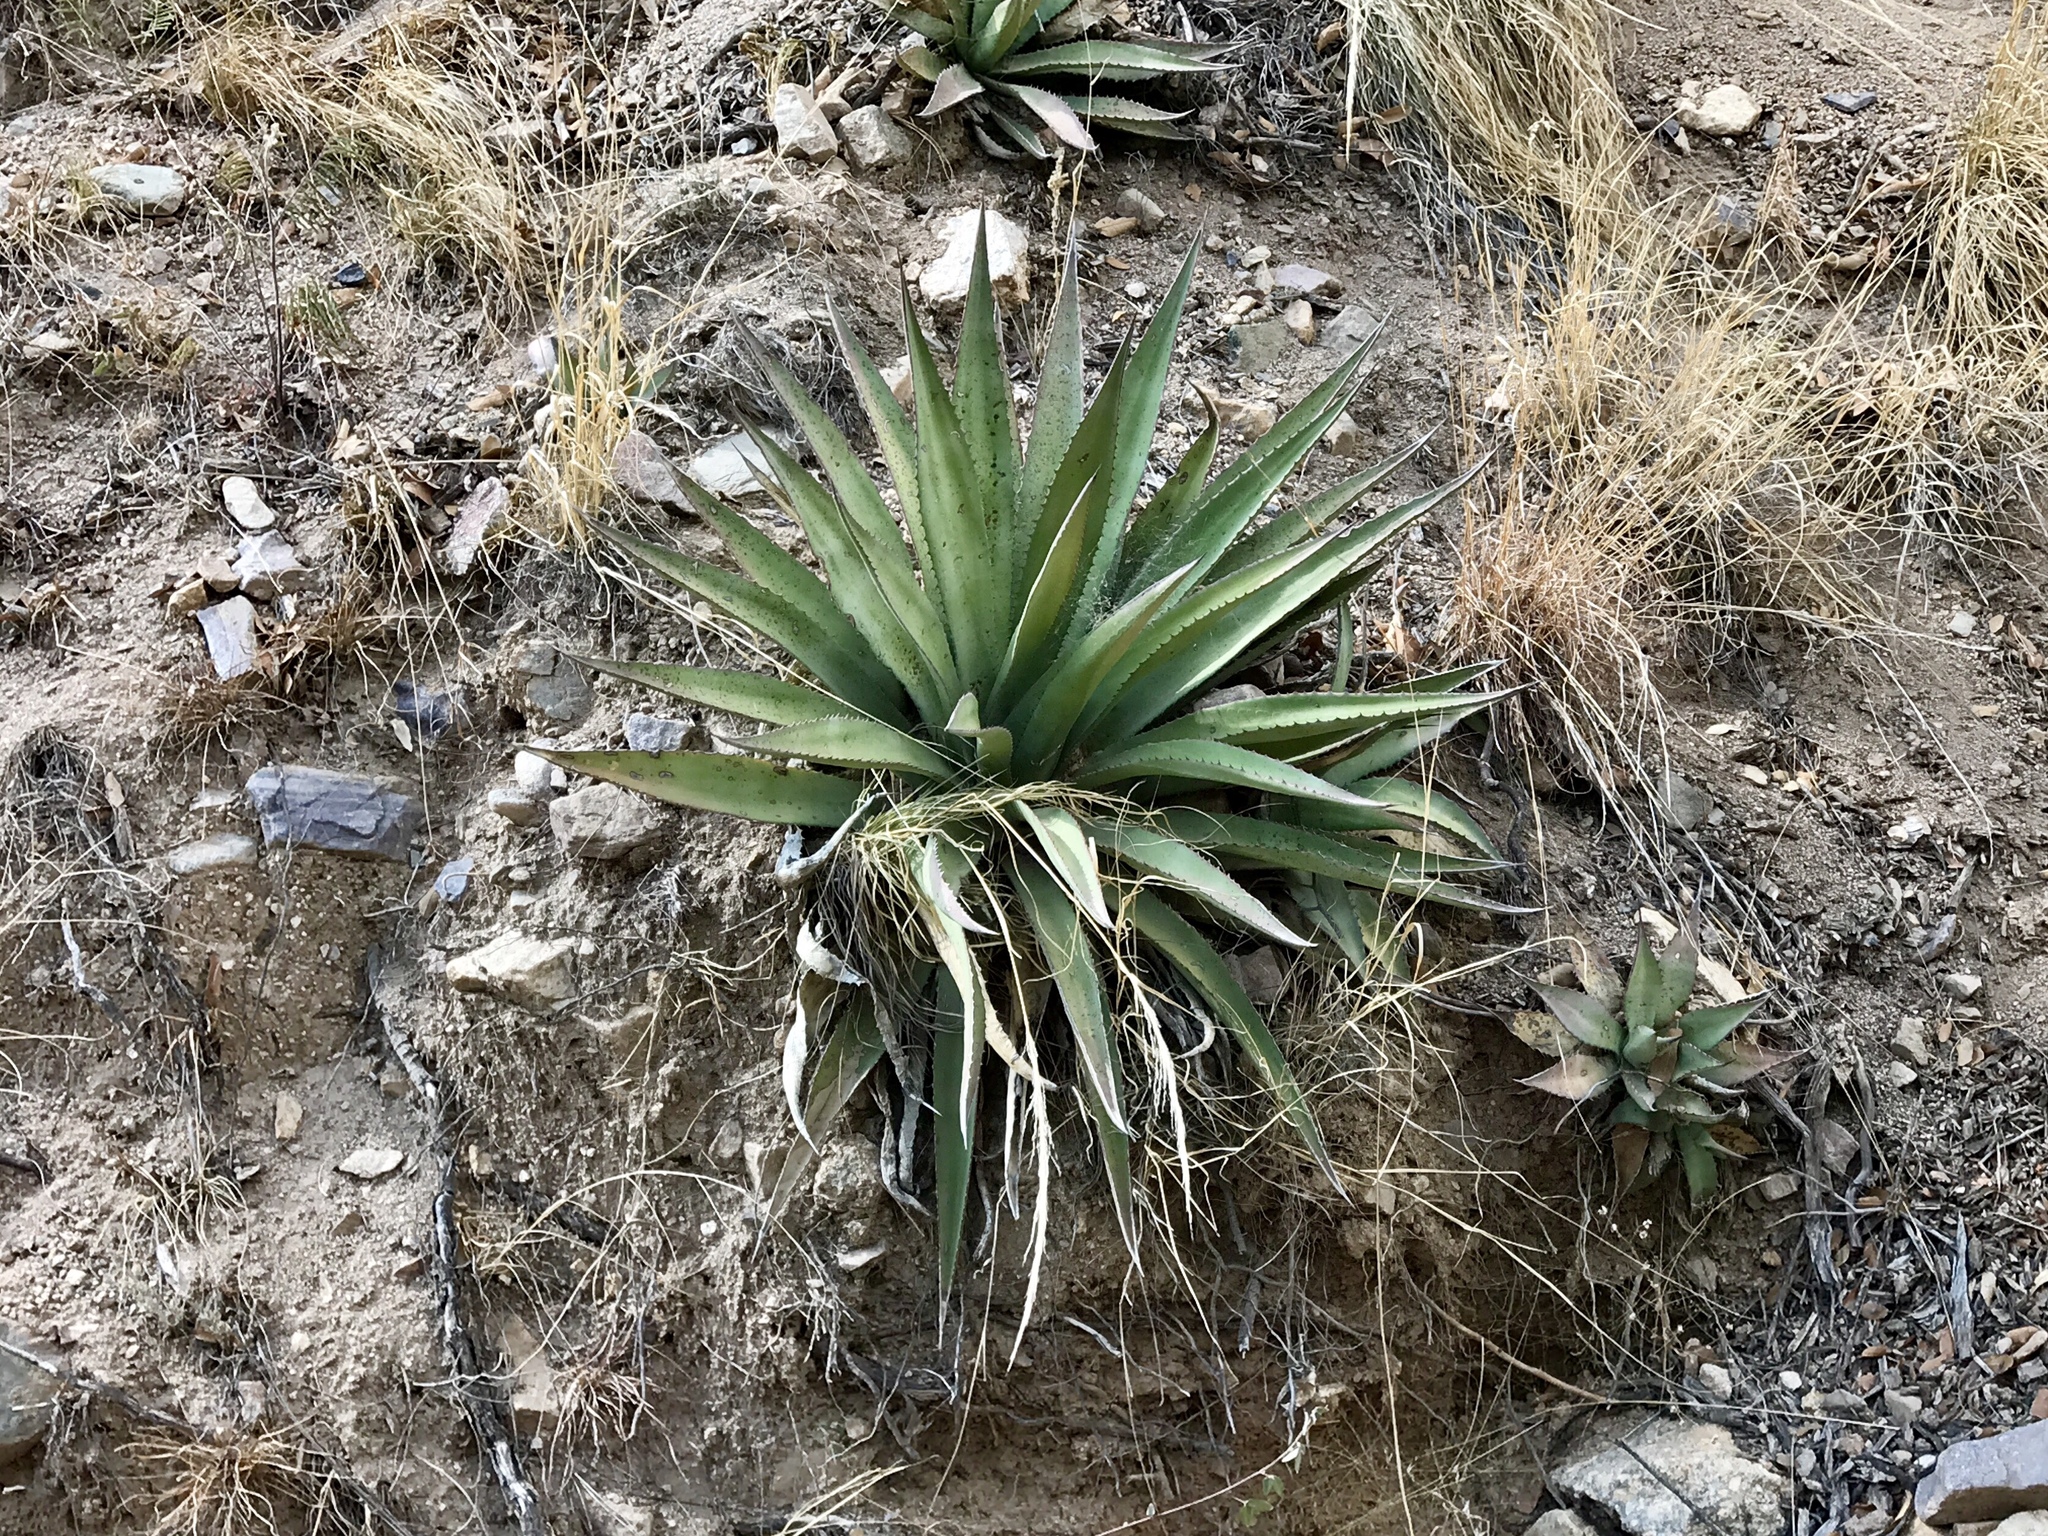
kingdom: Plantae
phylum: Tracheophyta
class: Liliopsida
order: Asparagales
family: Asparagaceae
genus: Agave
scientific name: Agave palmeri
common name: Palmer agave
